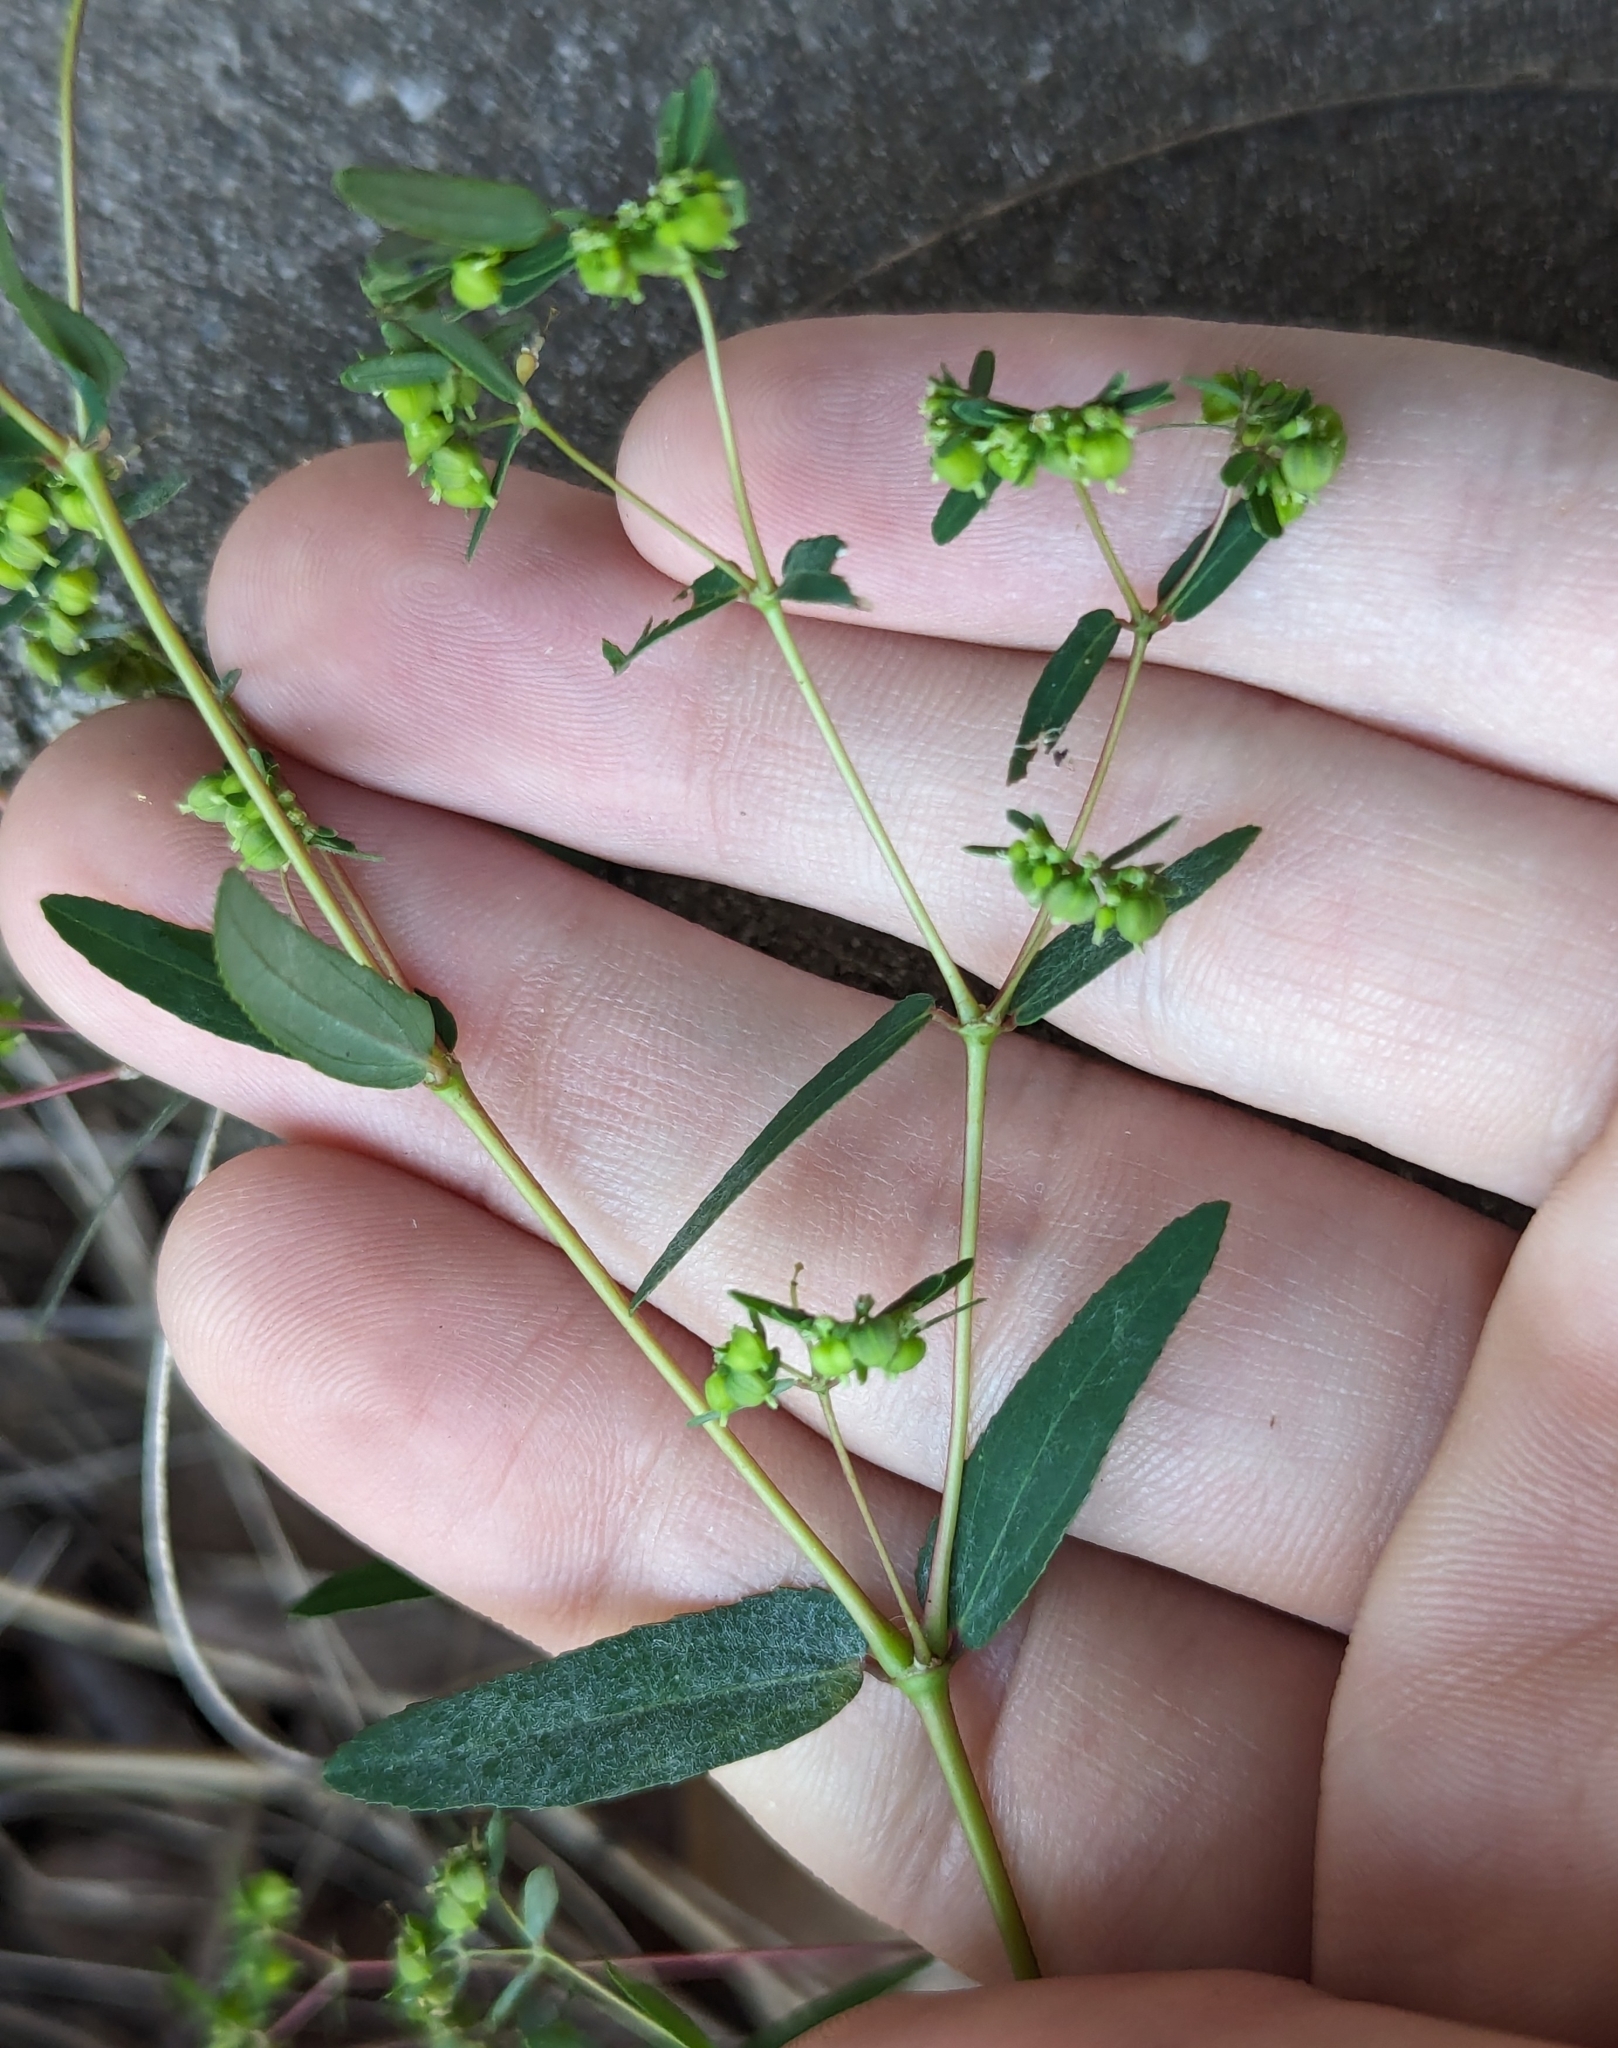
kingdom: Plantae
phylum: Tracheophyta
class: Magnoliopsida
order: Malpighiales
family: Euphorbiaceae
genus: Euphorbia
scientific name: Euphorbia hyssopifolia
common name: Hyssopleaf sandmat
